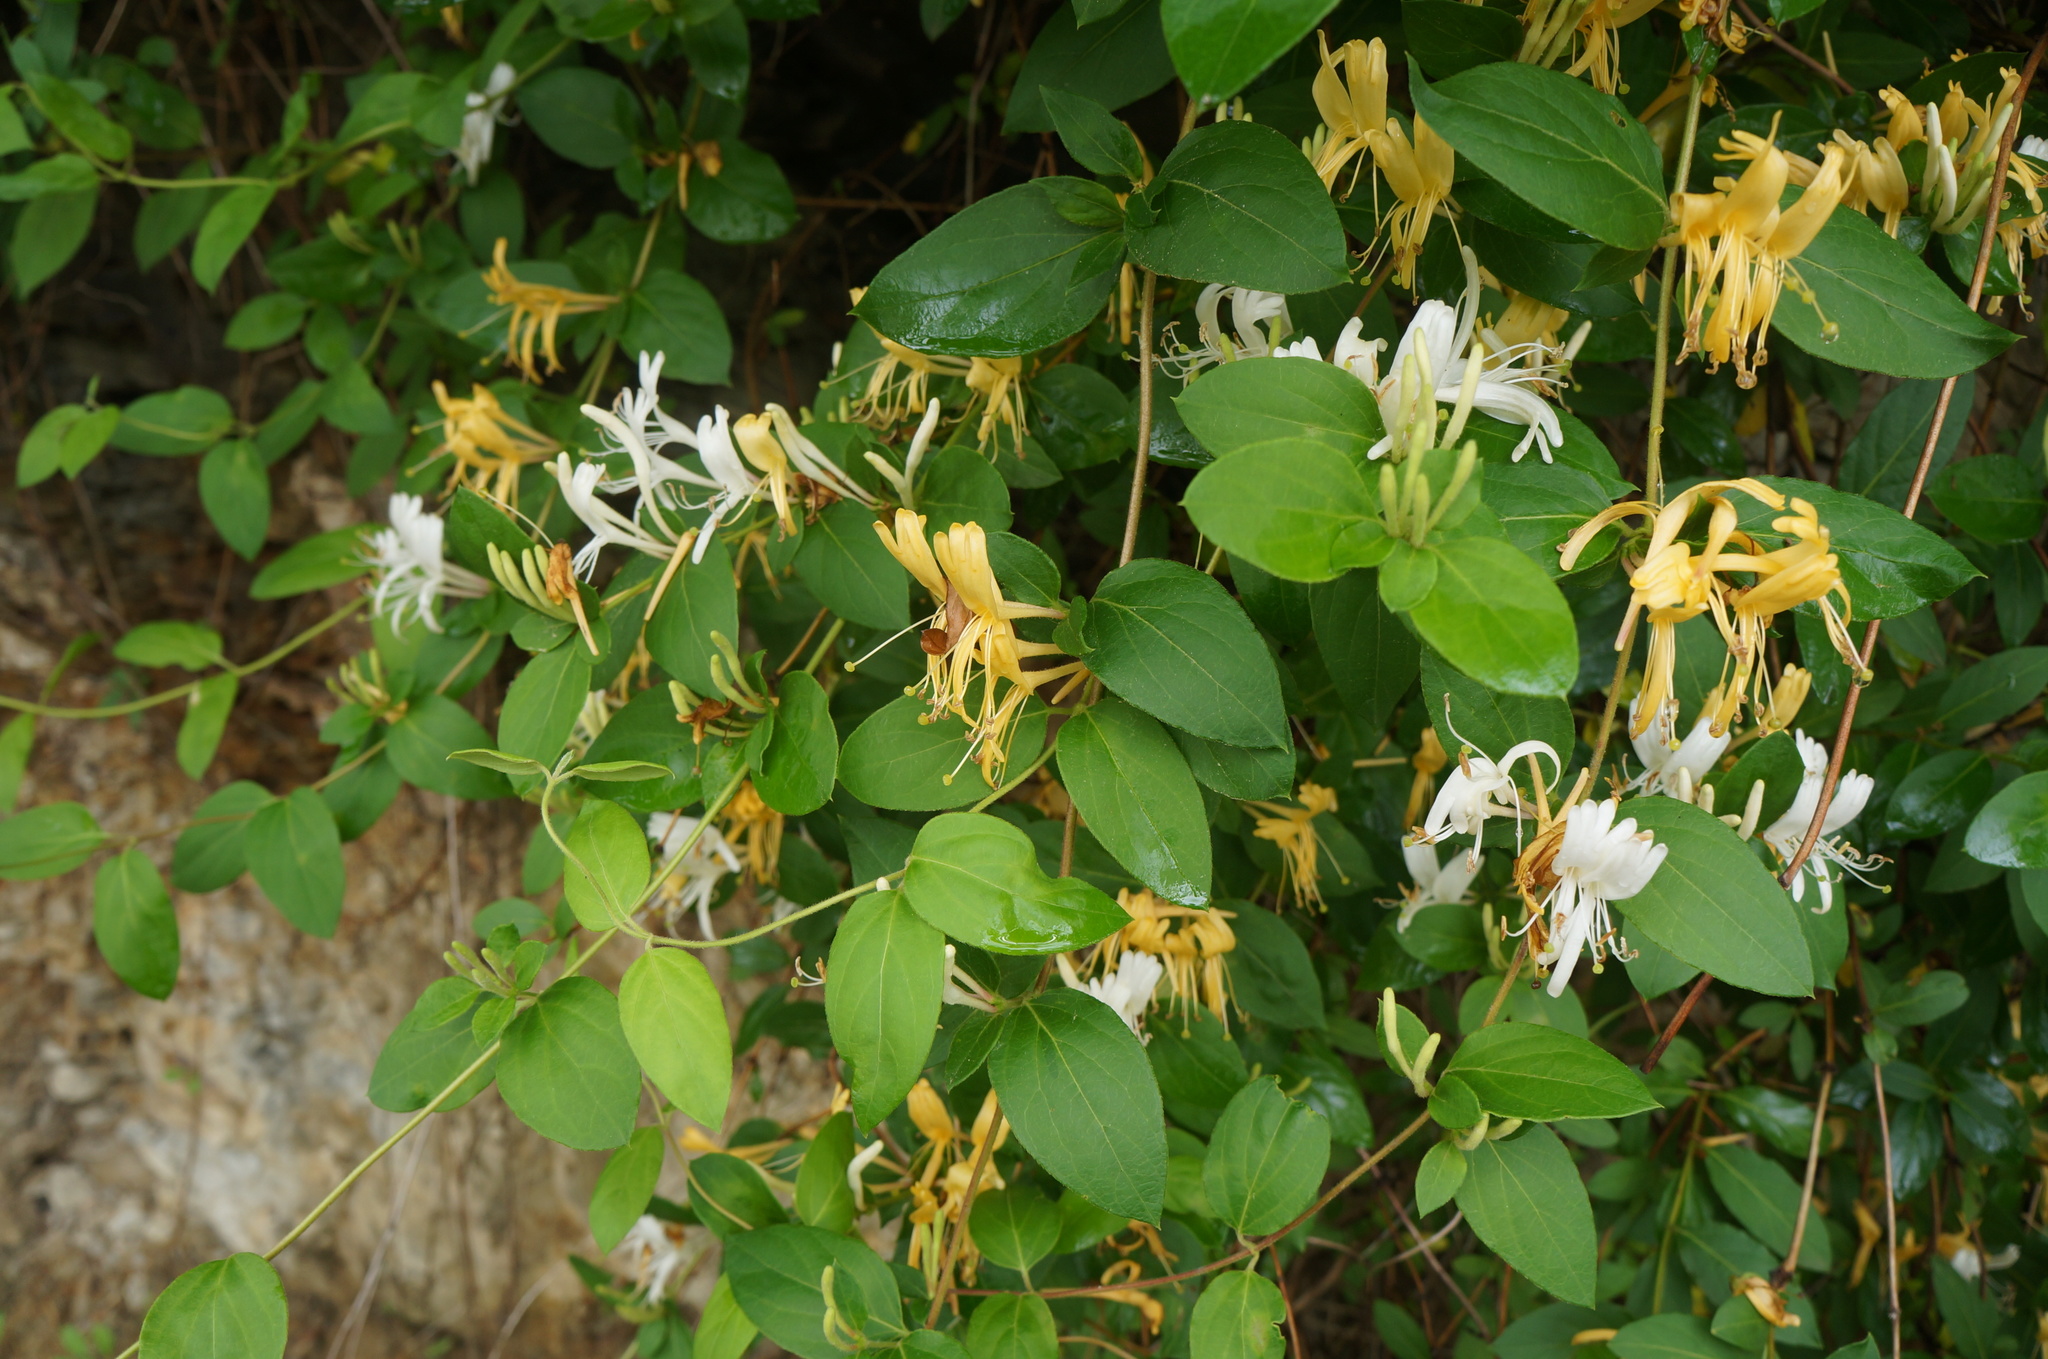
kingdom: Plantae
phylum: Tracheophyta
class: Magnoliopsida
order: Dipsacales
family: Caprifoliaceae
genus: Lonicera
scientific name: Lonicera japonica
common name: Japanese honeysuckle
